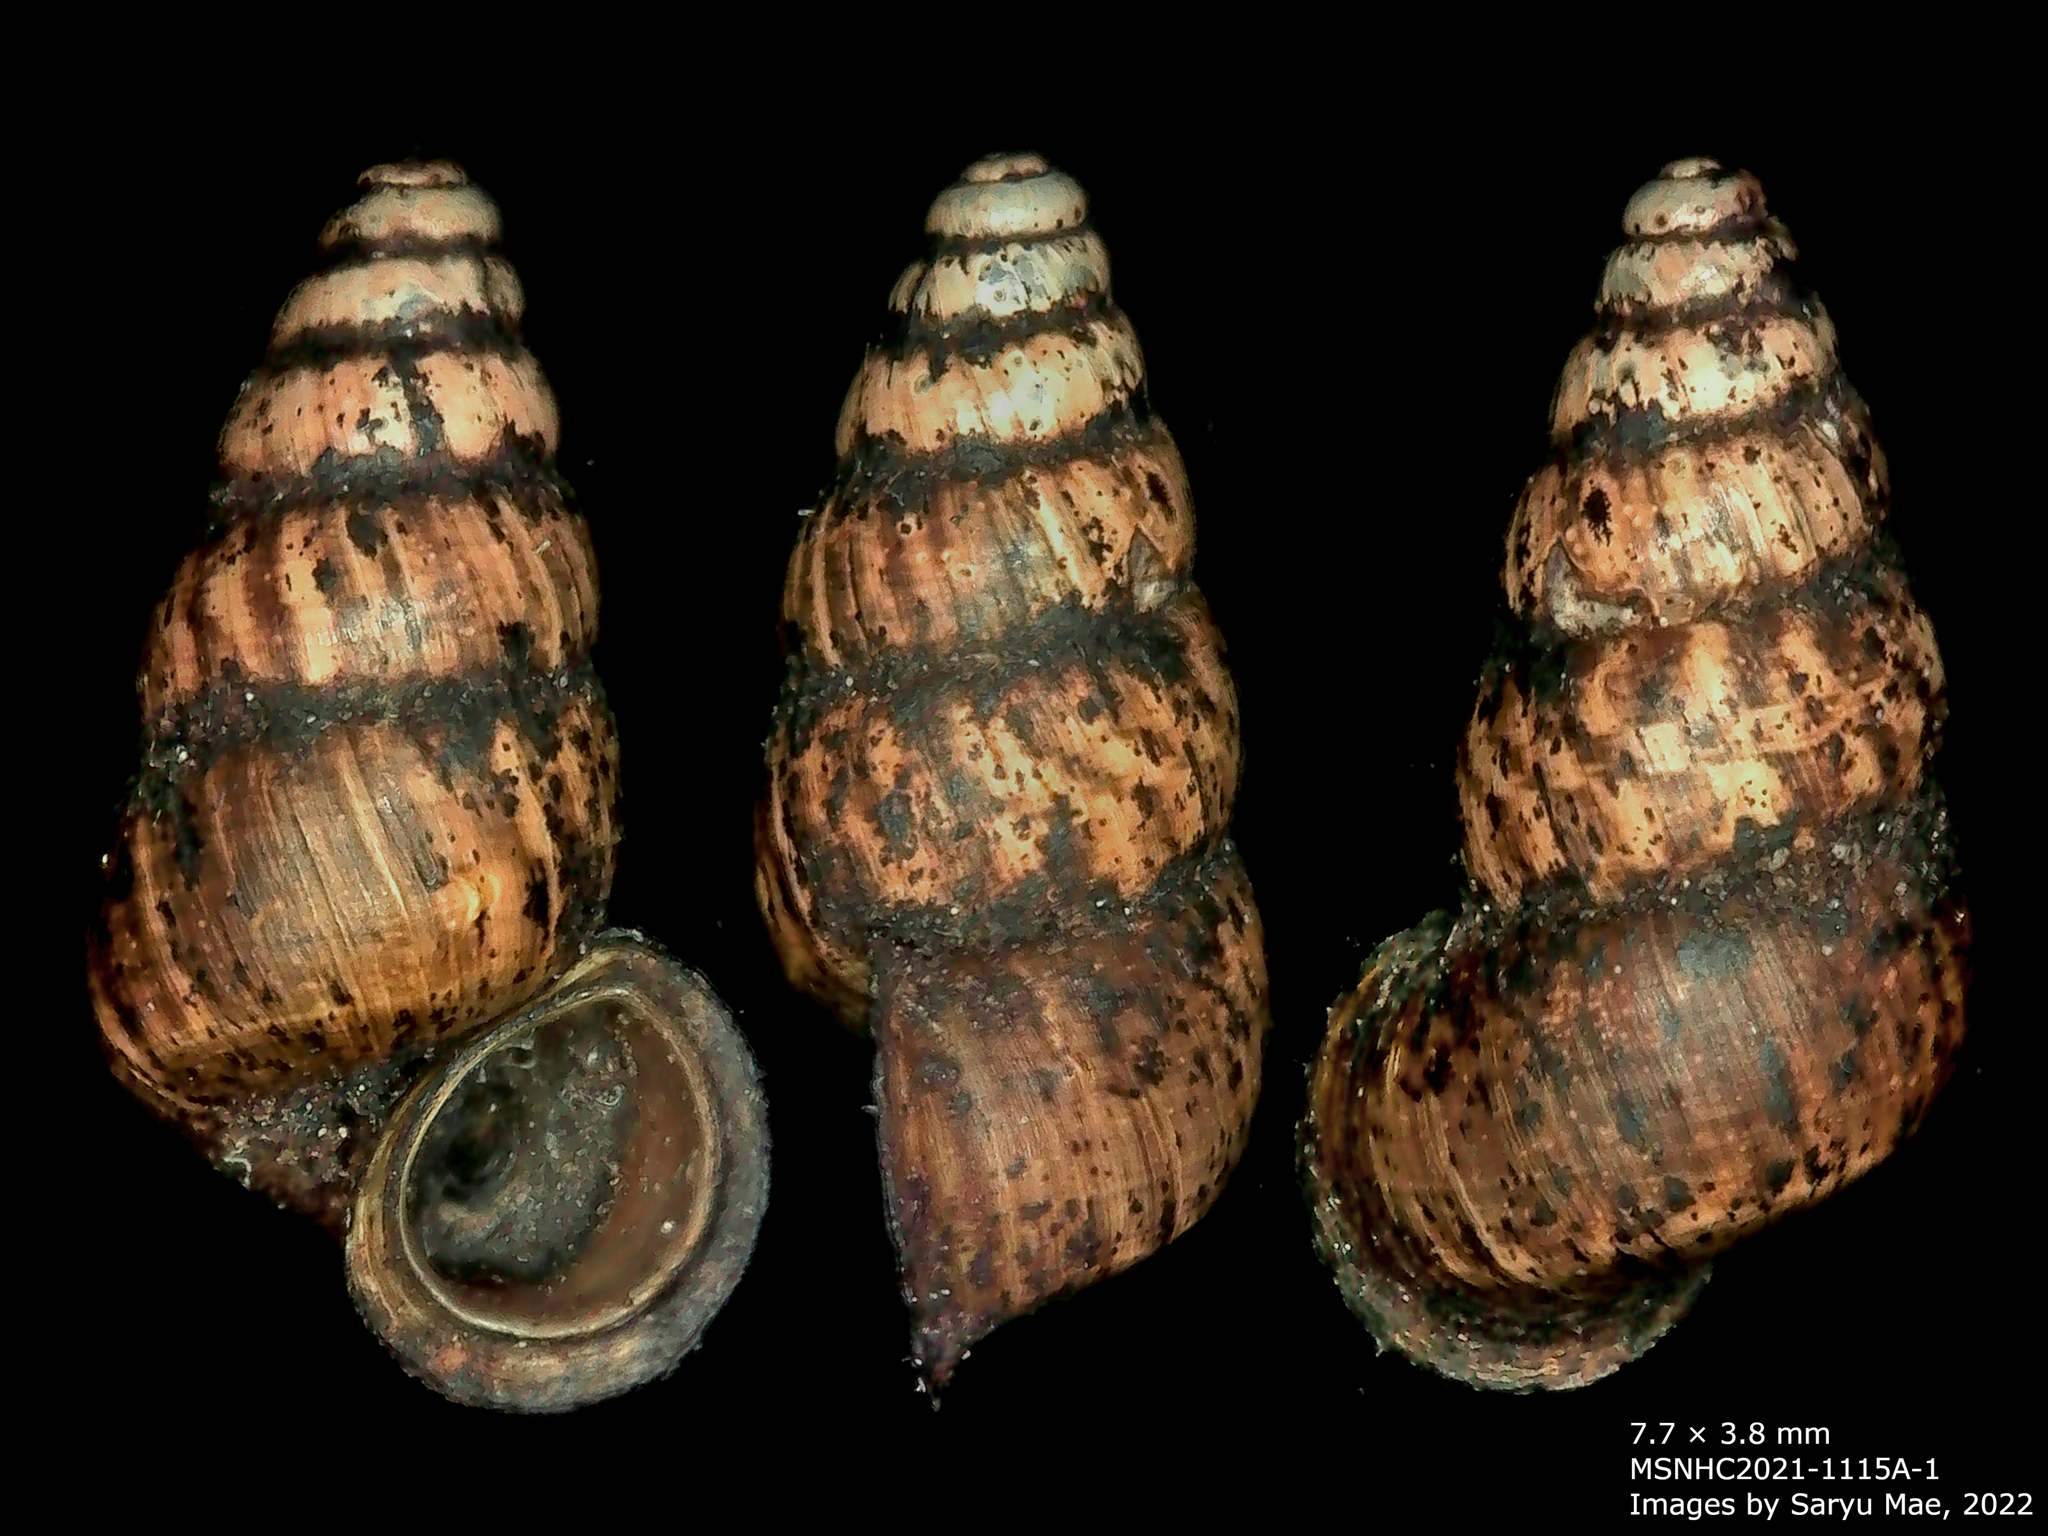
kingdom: Animalia
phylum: Mollusca
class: Gastropoda
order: Architaenioglossa
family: Pupinidae
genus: Liarea
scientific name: Liarea turriculata
